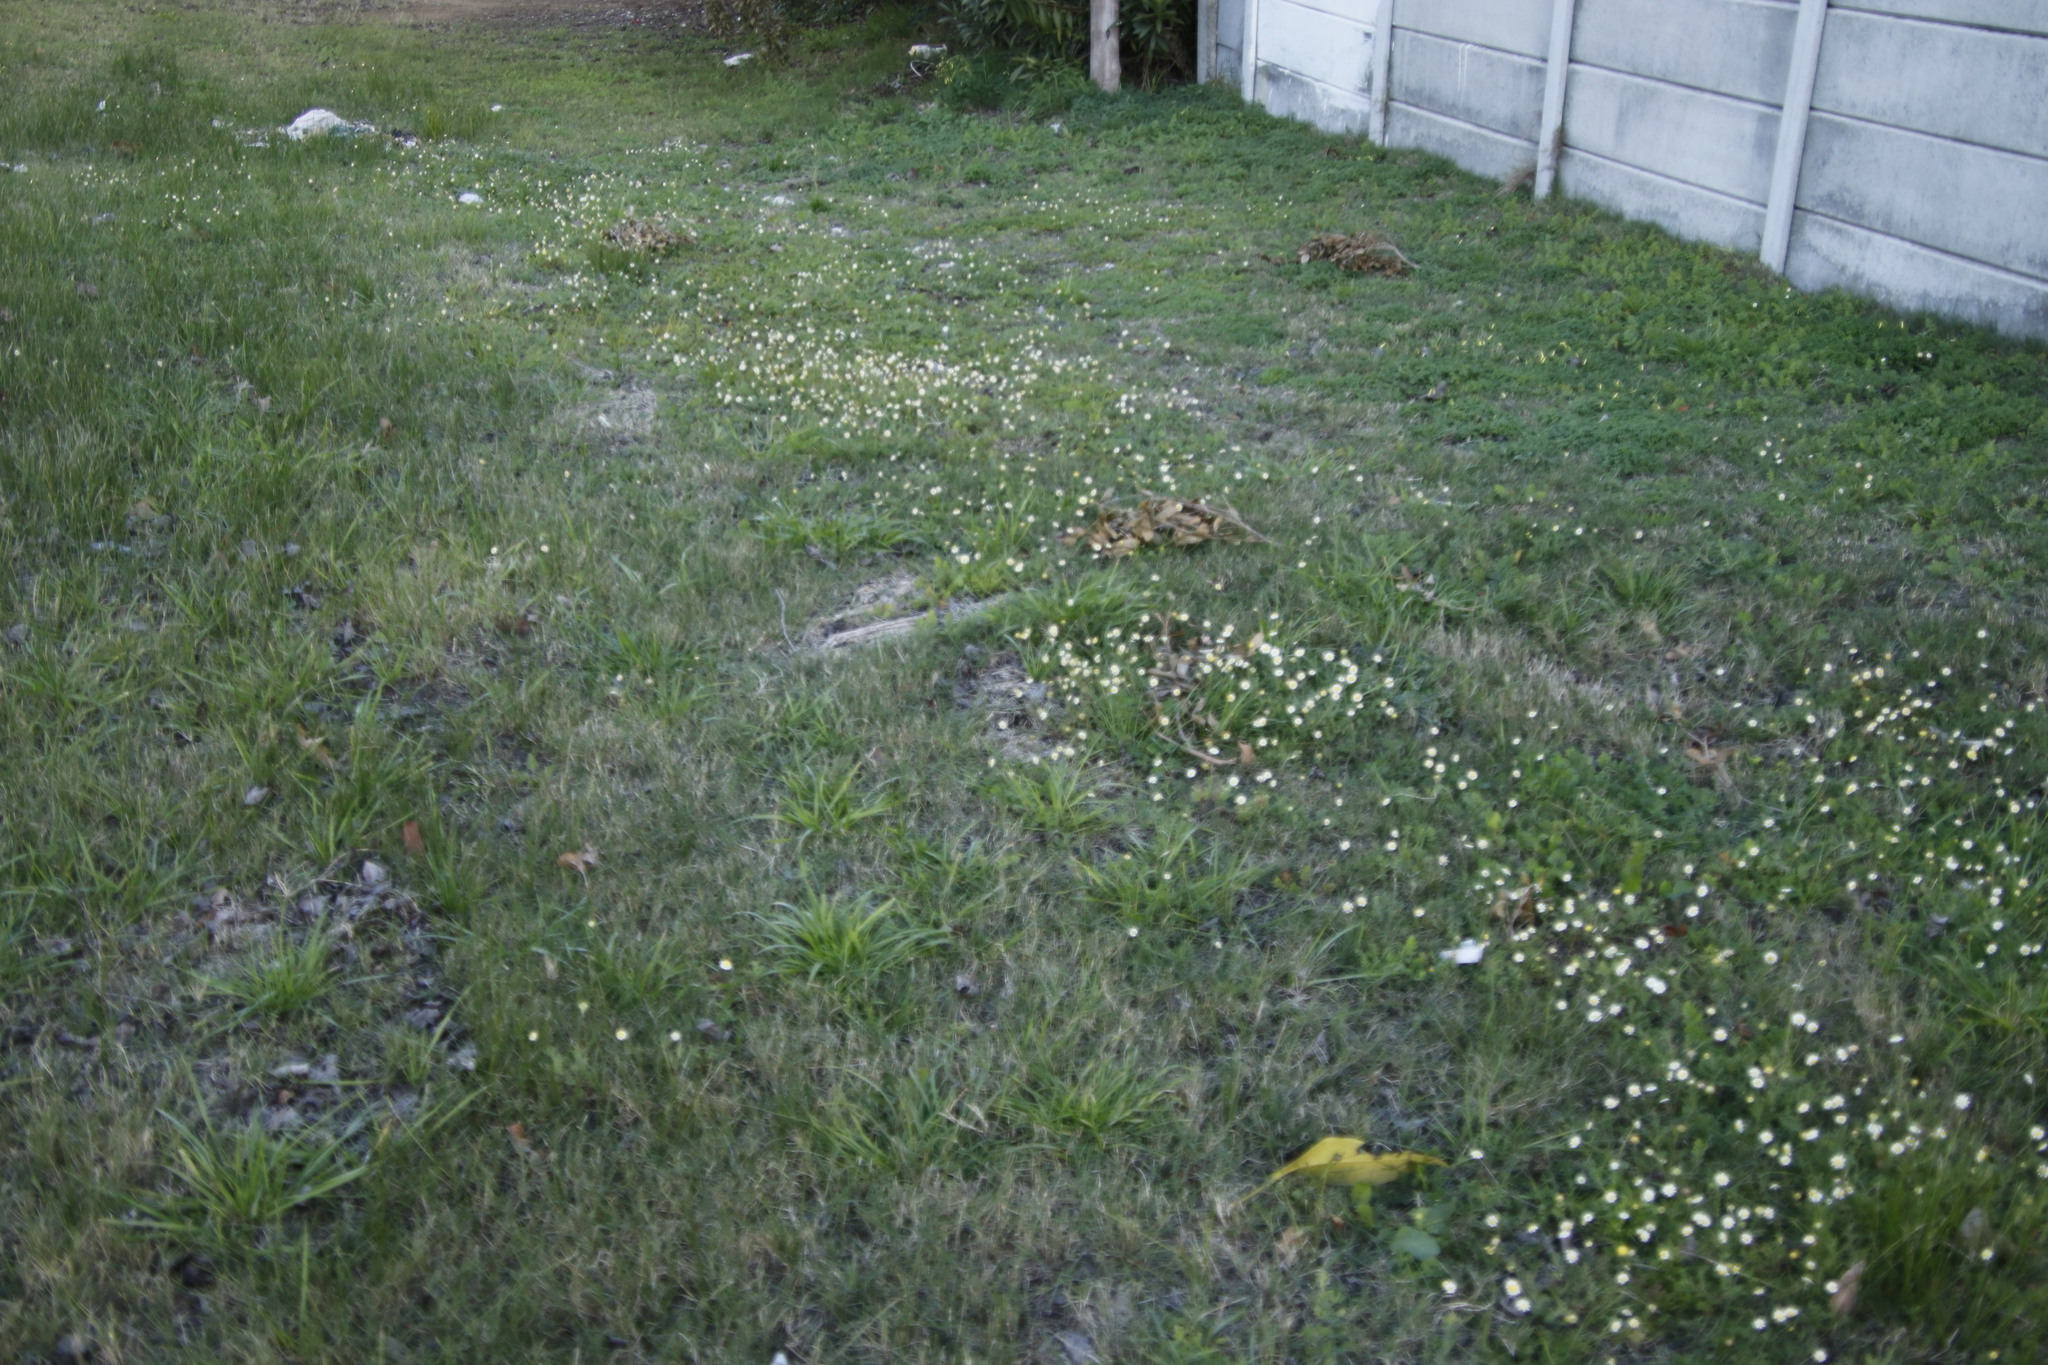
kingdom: Plantae
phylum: Tracheophyta
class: Magnoliopsida
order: Asterales
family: Asteraceae
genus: Cotula
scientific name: Cotula turbinata
